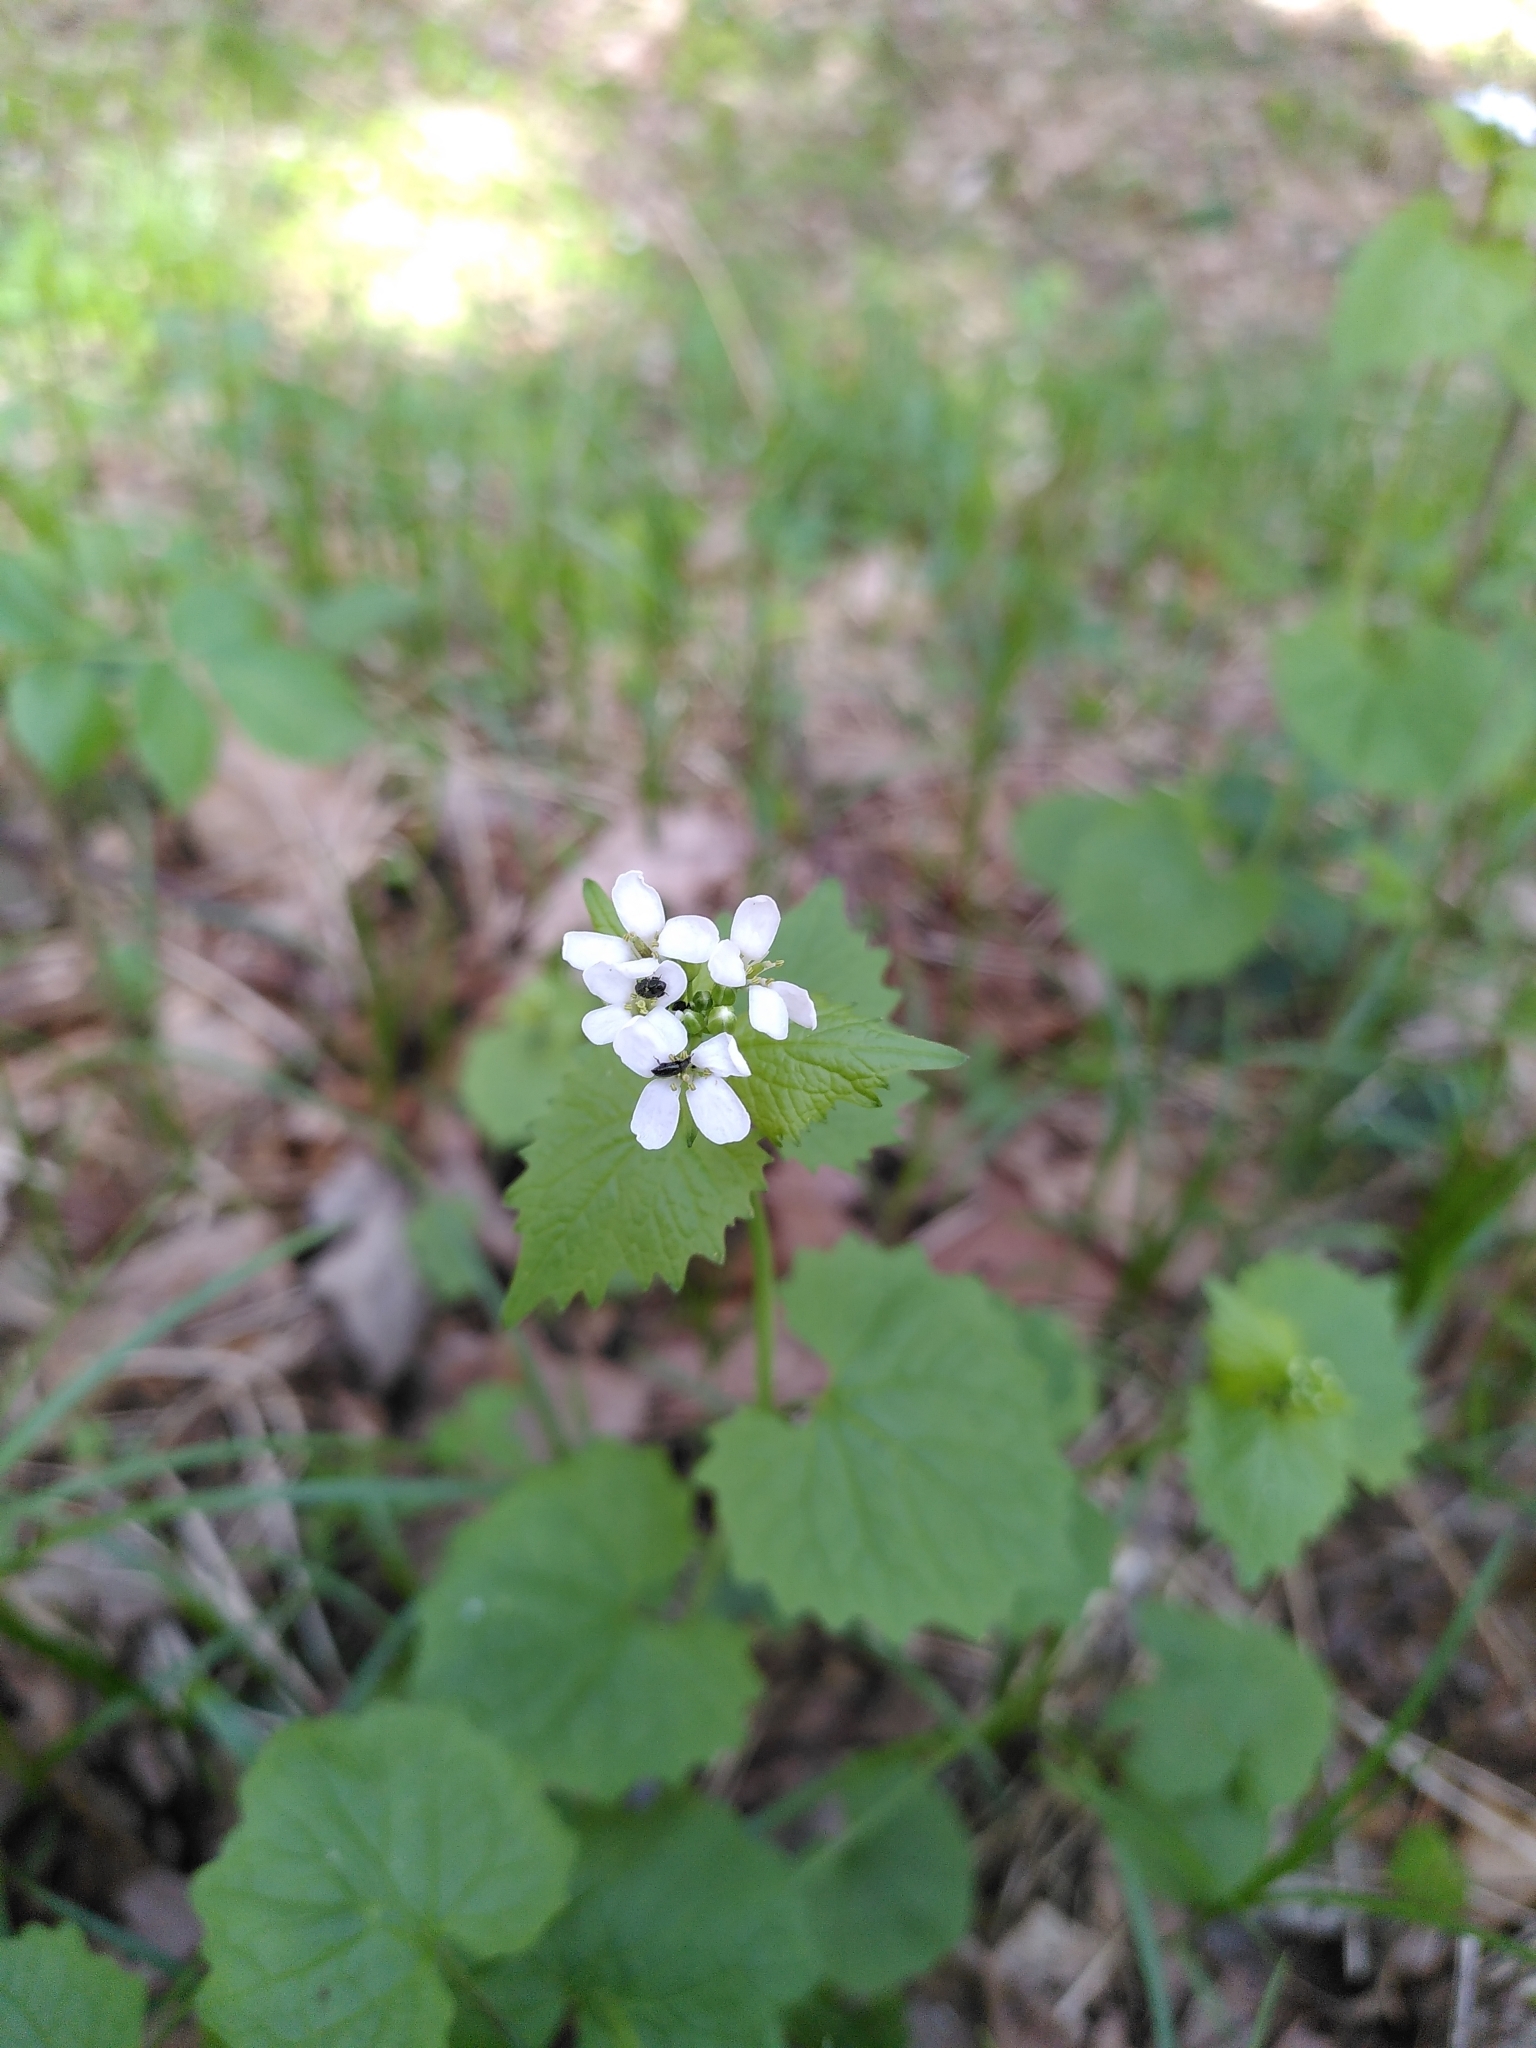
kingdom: Plantae
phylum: Tracheophyta
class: Magnoliopsida
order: Brassicales
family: Brassicaceae
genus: Alliaria
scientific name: Alliaria petiolata
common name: Garlic mustard
